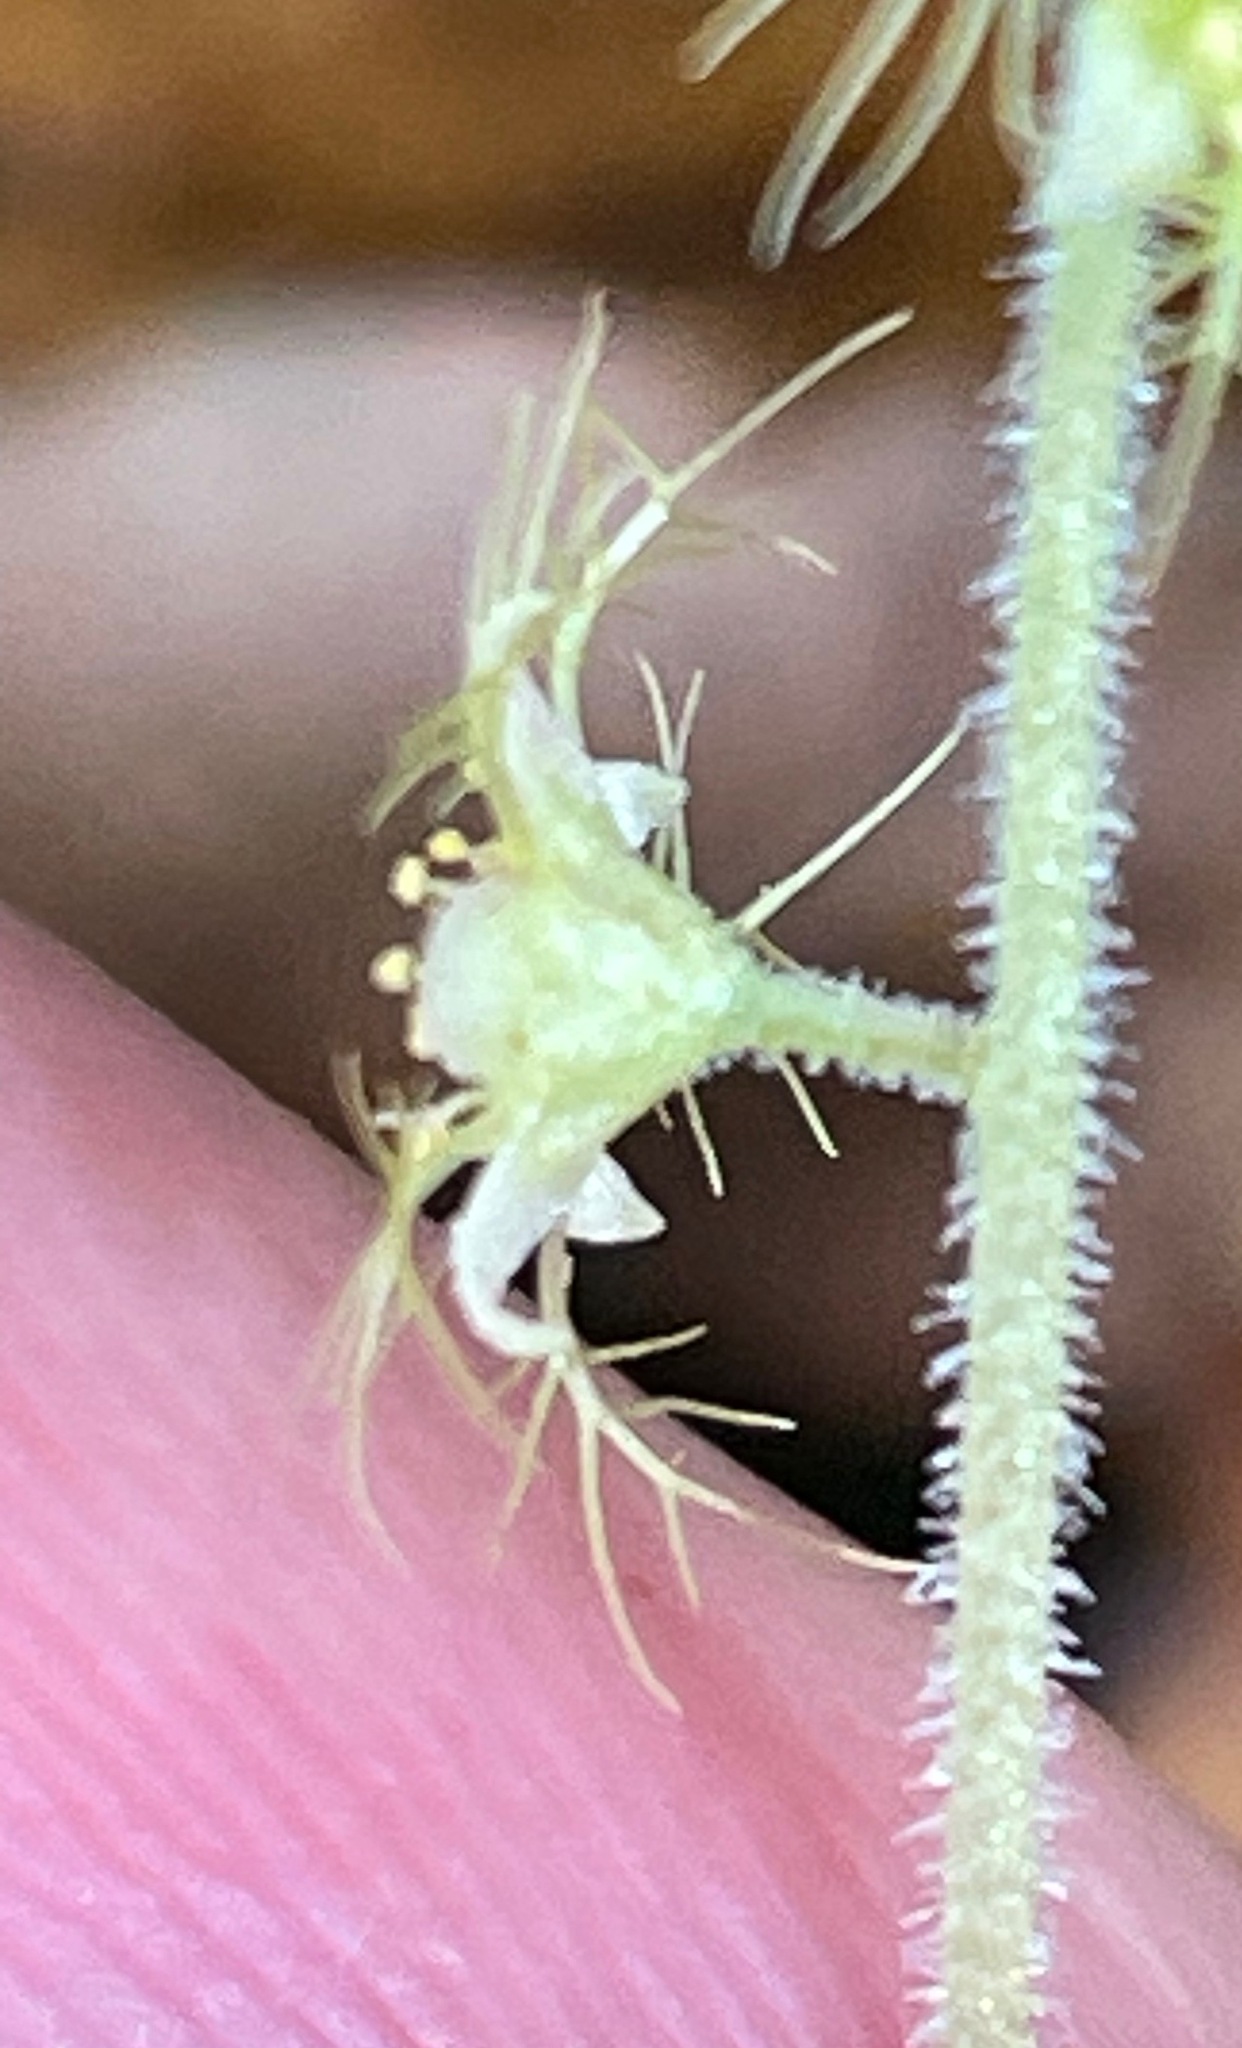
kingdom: Plantae
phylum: Tracheophyta
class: Magnoliopsida
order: Saxifragales
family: Saxifragaceae
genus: Mitella
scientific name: Mitella nuda
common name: Bare-stemmed bishop's-cap
